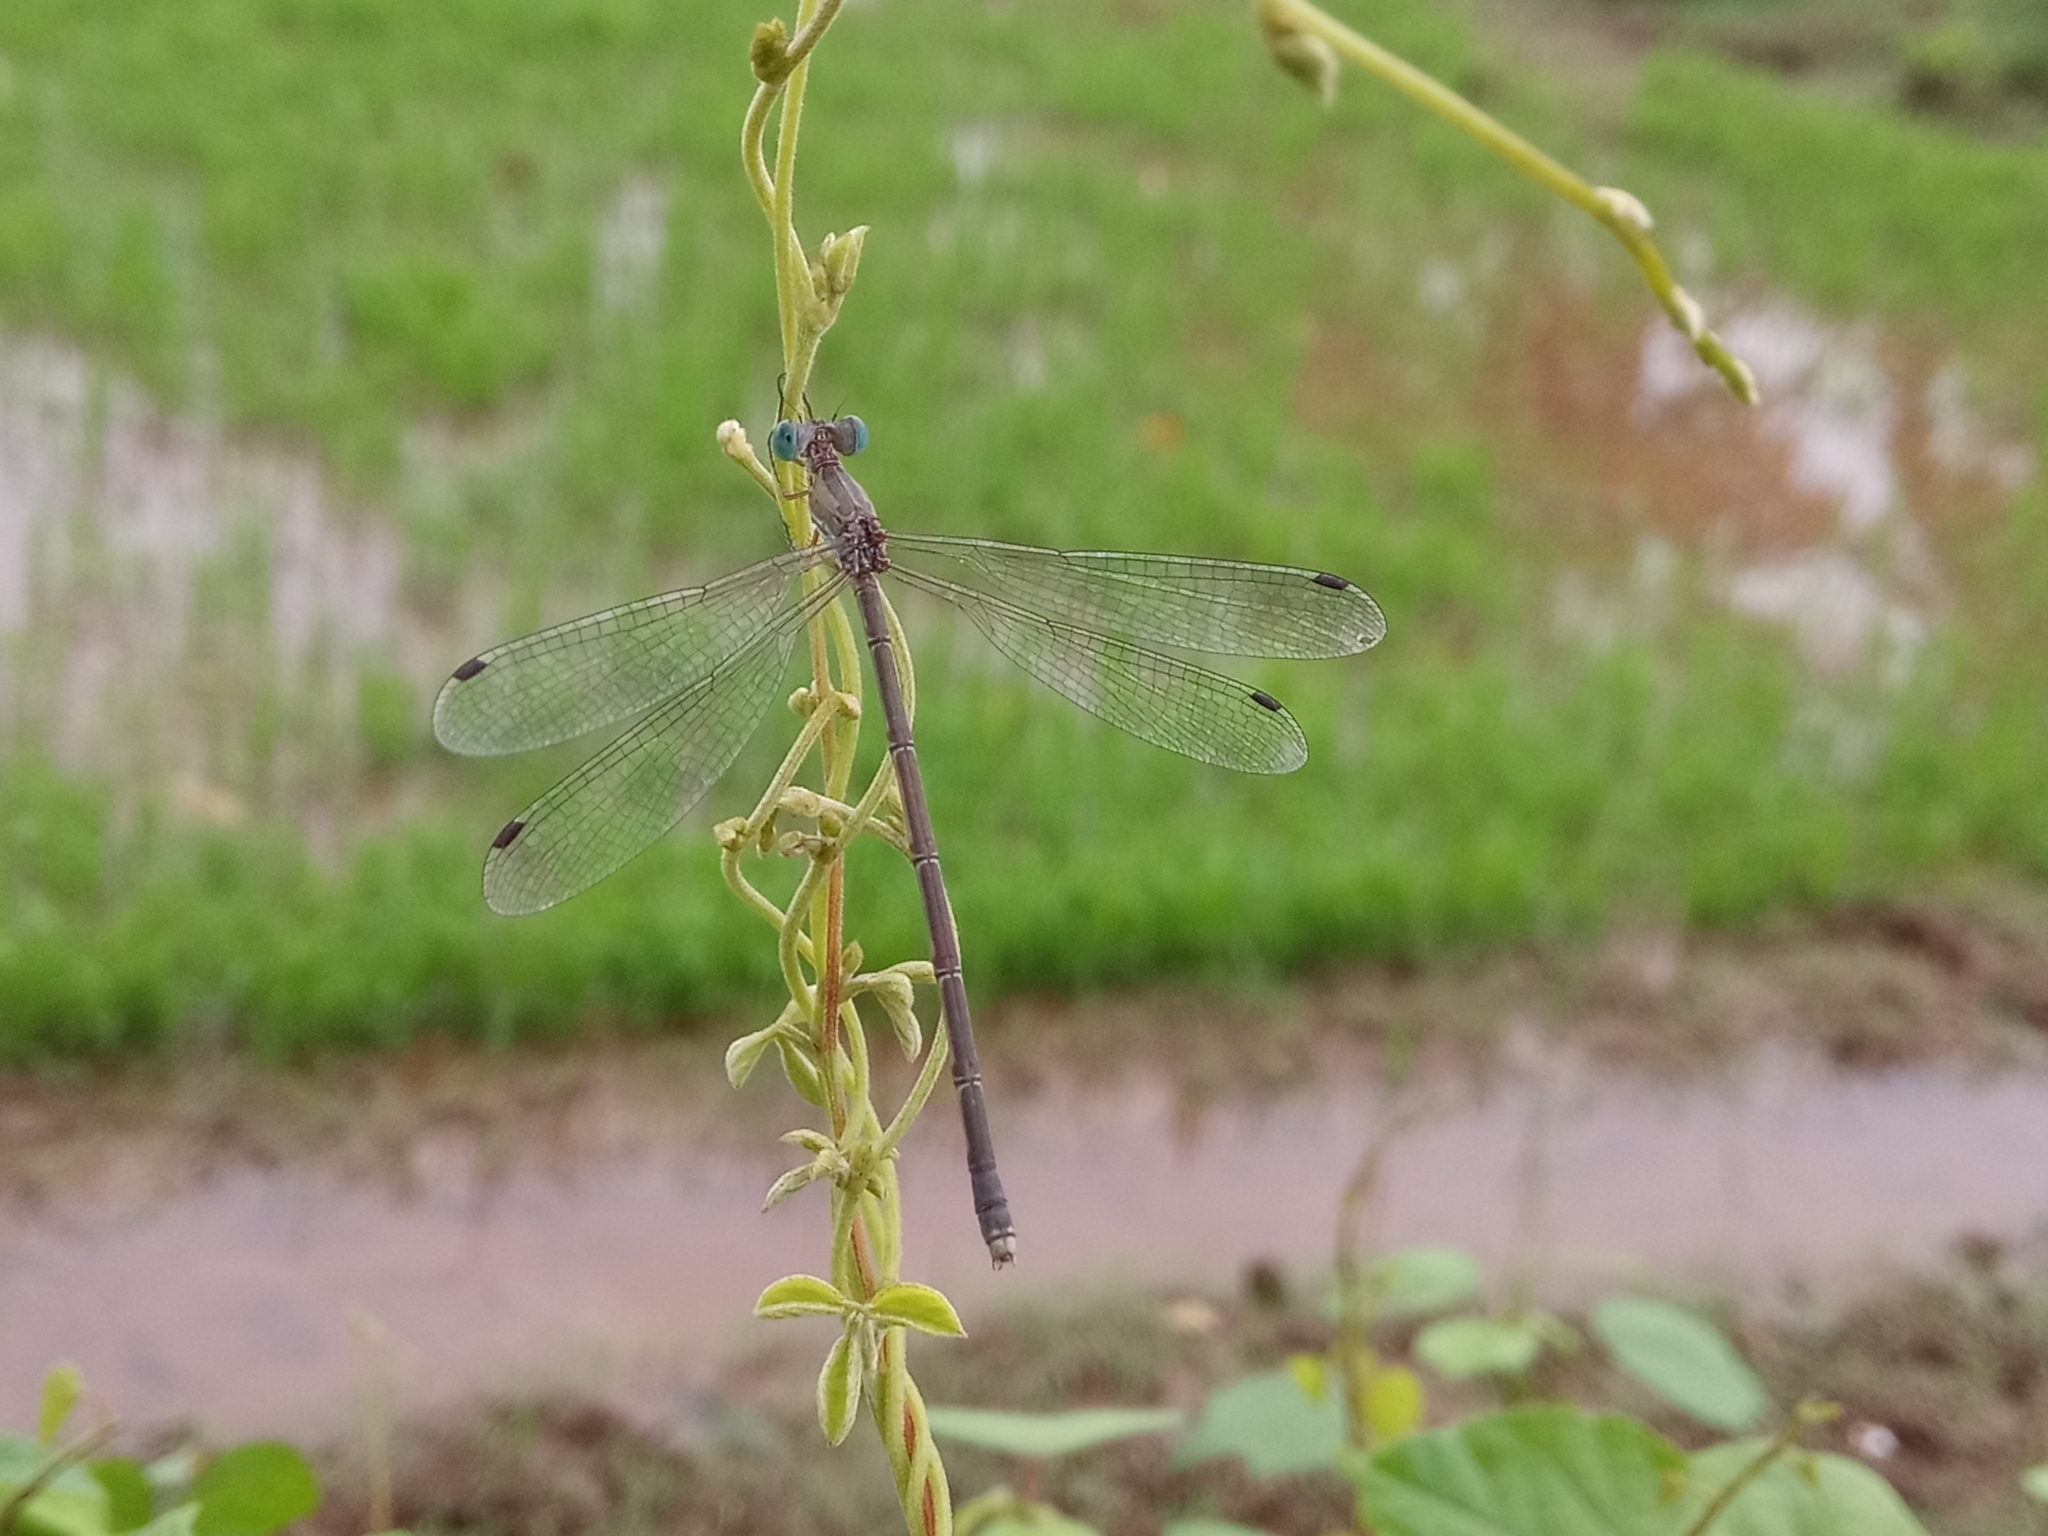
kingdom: Animalia
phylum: Arthropoda
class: Insecta
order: Odonata
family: Lestidae
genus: Lestes
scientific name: Lestes elatus
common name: Emerald spreadwing
